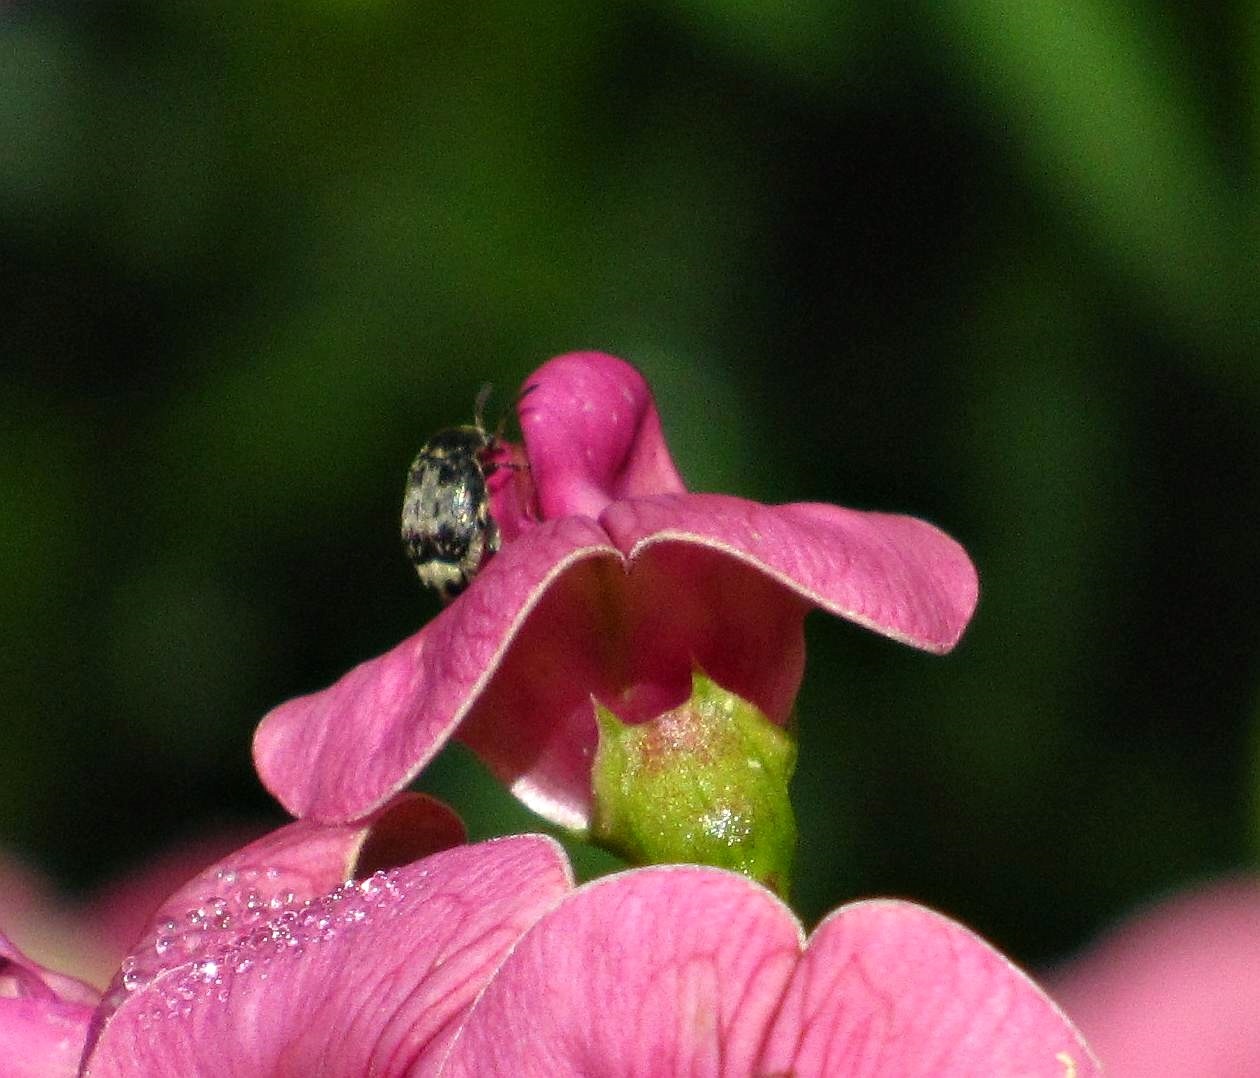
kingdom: Animalia
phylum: Arthropoda
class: Insecta
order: Coleoptera
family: Chrysomelidae
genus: Bruchus
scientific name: Bruchus affinis
